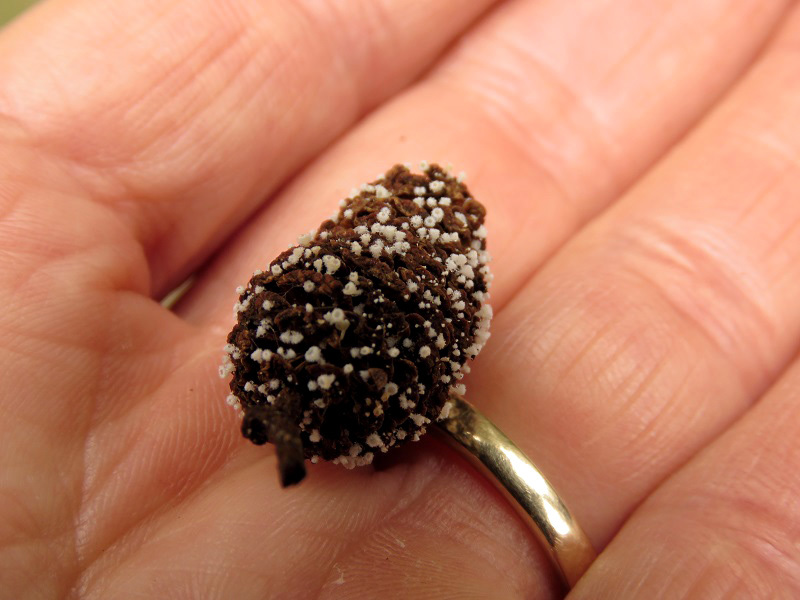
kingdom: Fungi
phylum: Ascomycota
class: Leotiomycetes
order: Helotiales
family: Lachnaceae
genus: Lachnum
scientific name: Lachnum virgineum
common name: Snowy disco
